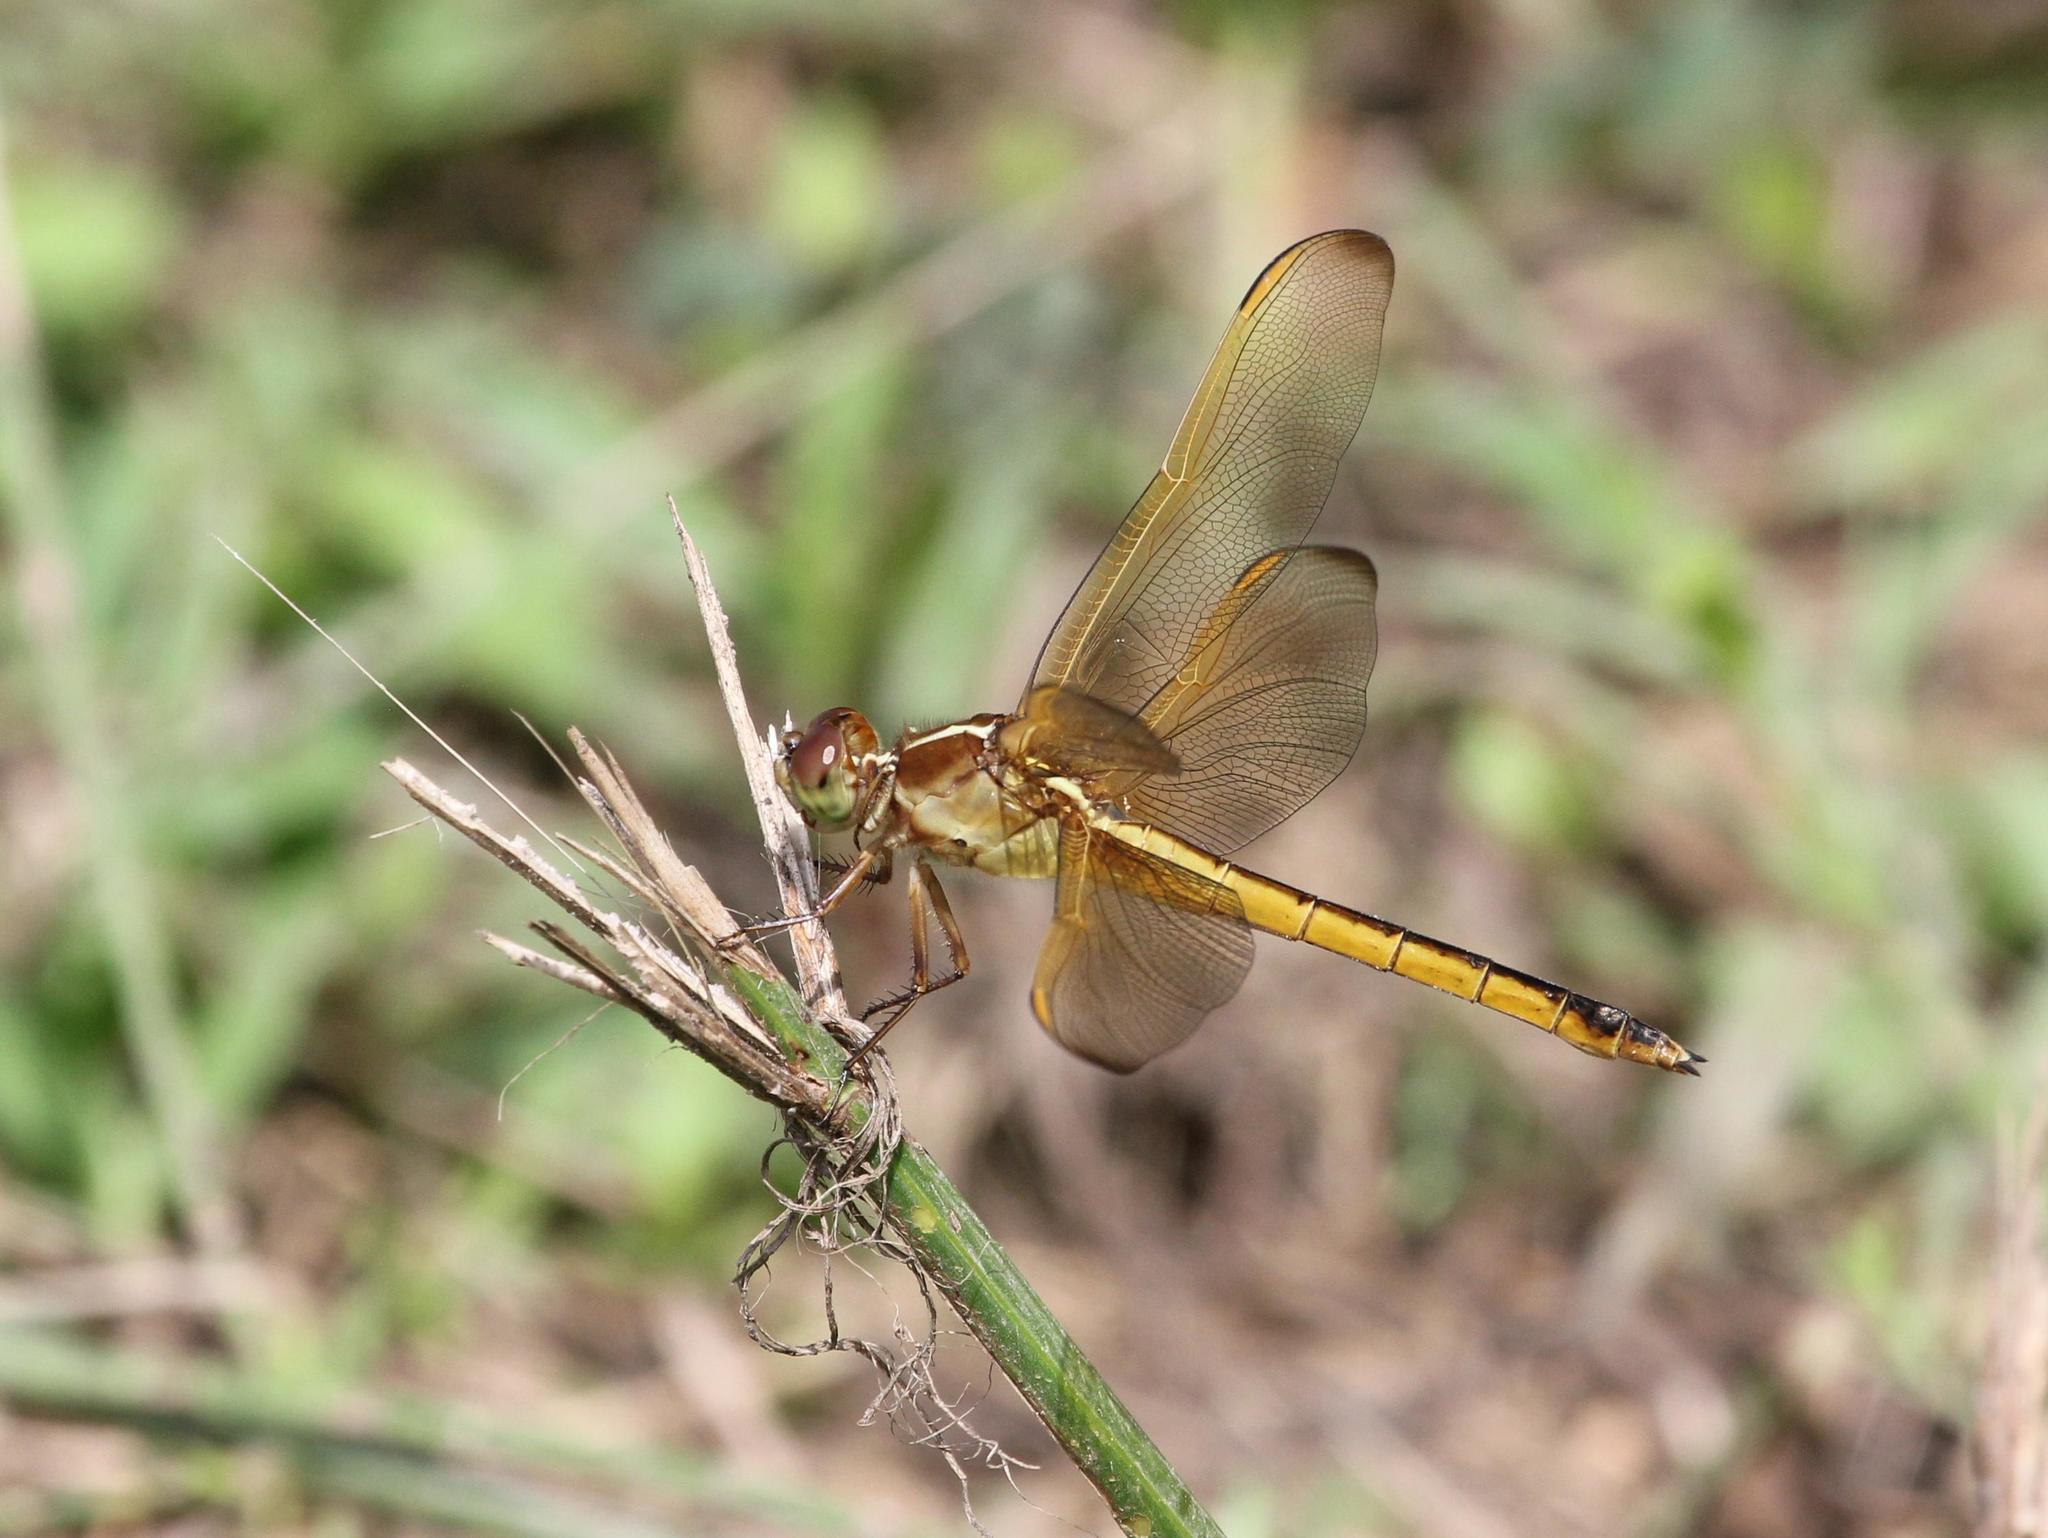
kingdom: Animalia
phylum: Arthropoda
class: Insecta
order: Odonata
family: Libellulidae
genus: Libellula
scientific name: Libellula needhami
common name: Needham's skimmer
